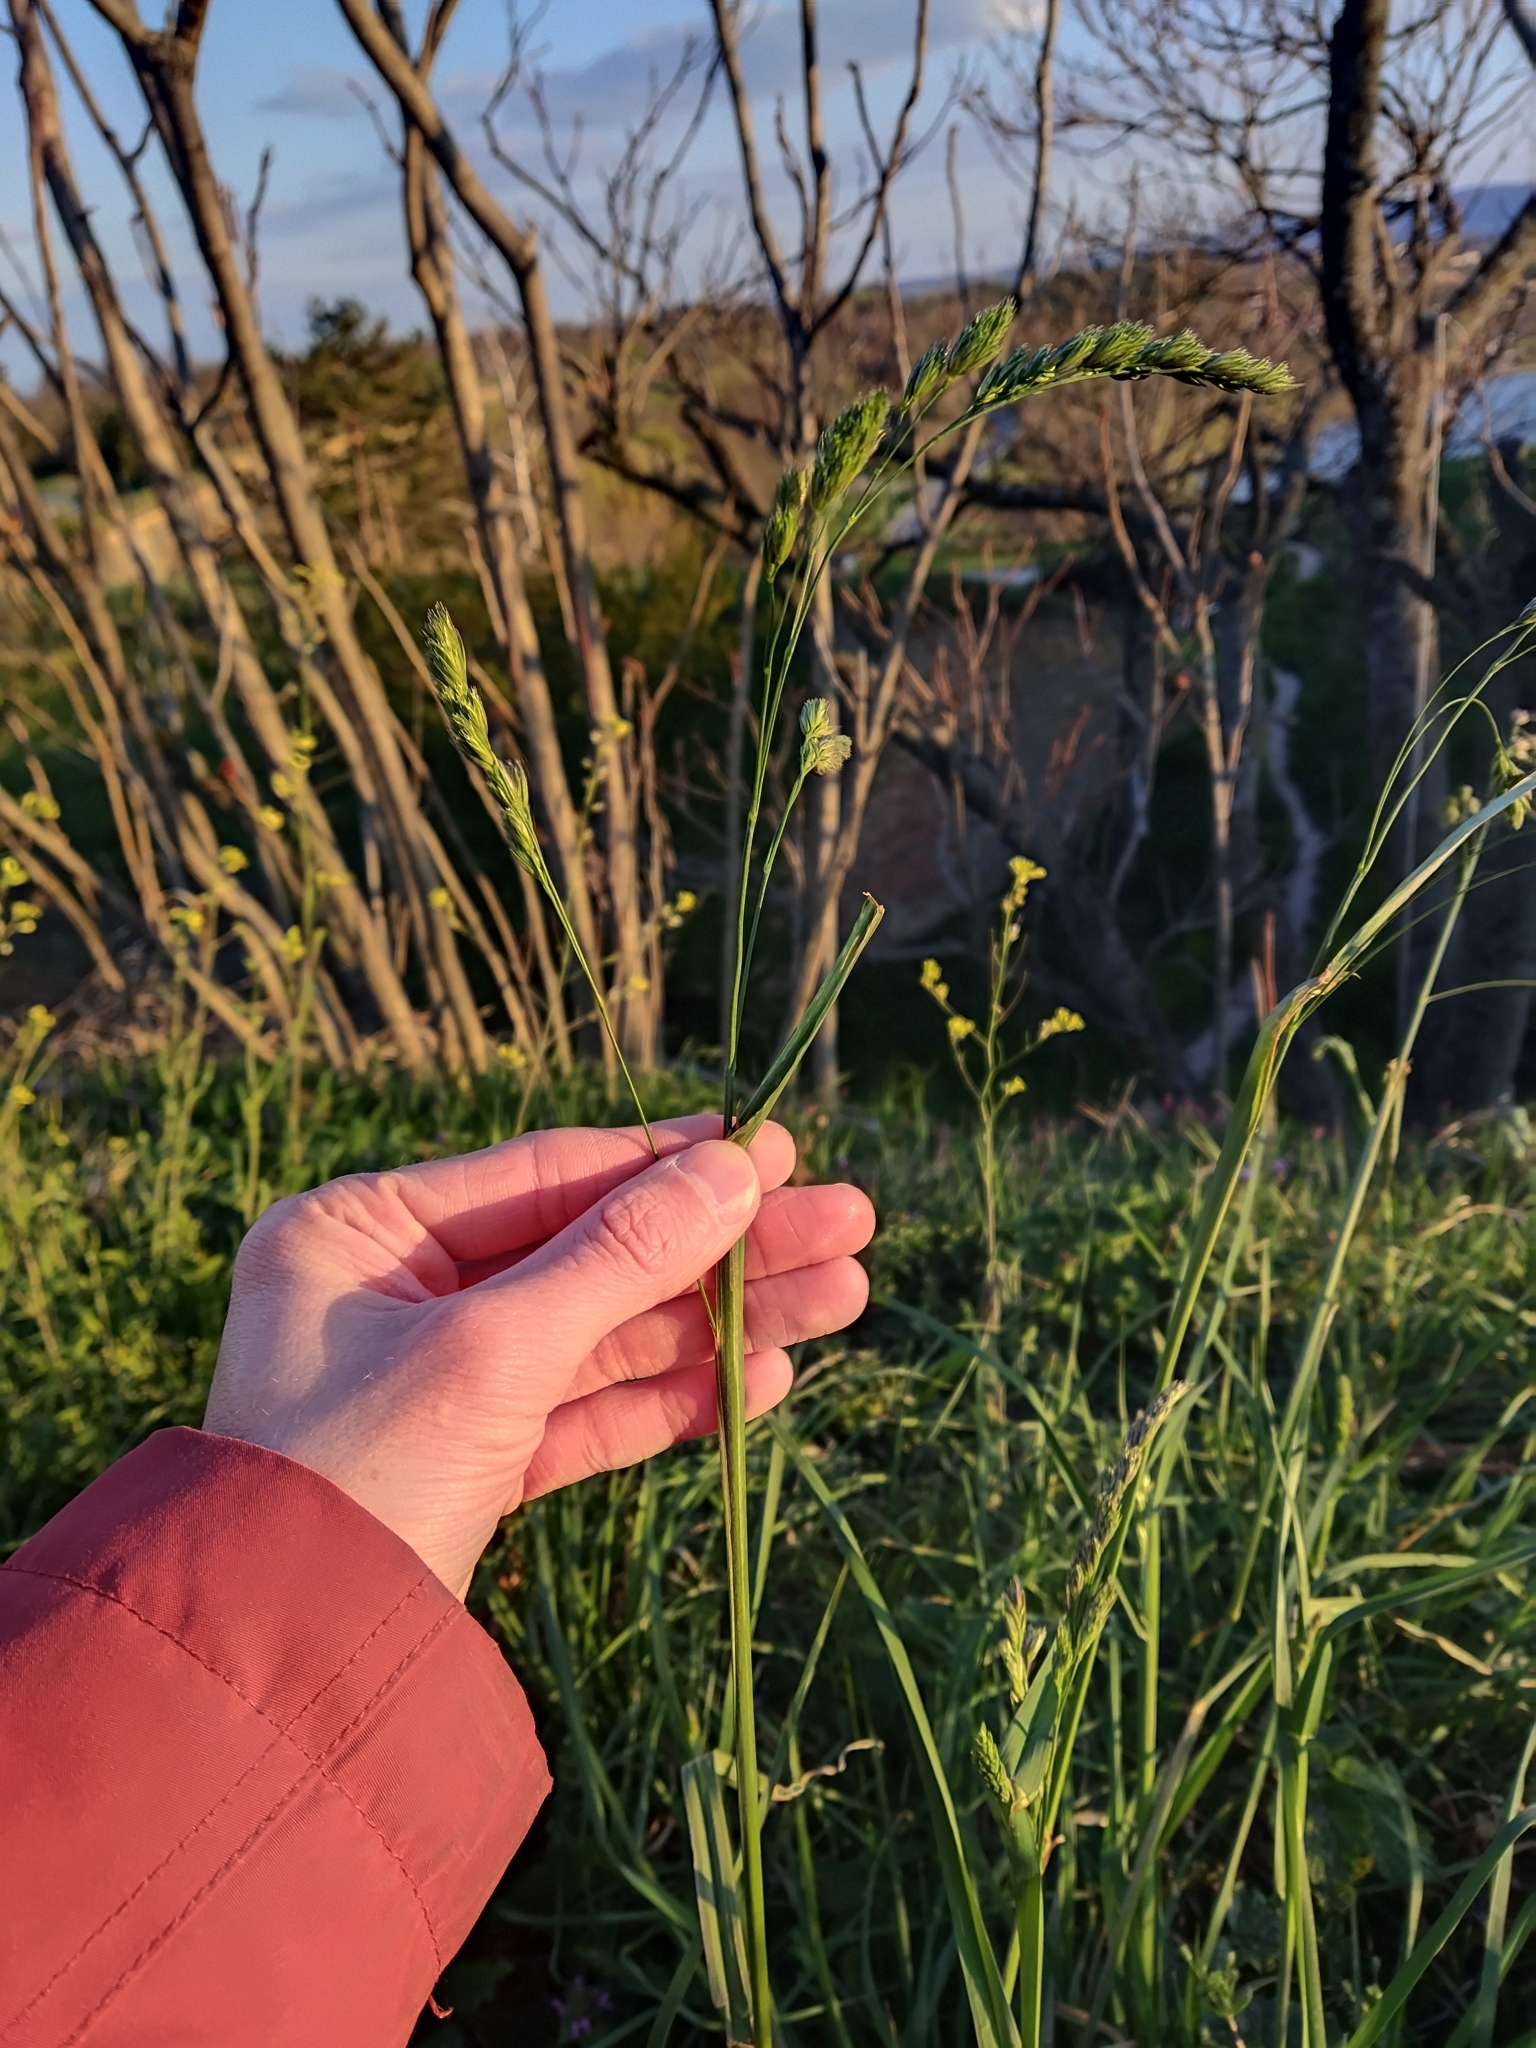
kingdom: Plantae
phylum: Tracheophyta
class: Liliopsida
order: Poales
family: Poaceae
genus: Dactylis
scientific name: Dactylis glomerata
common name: Orchardgrass
